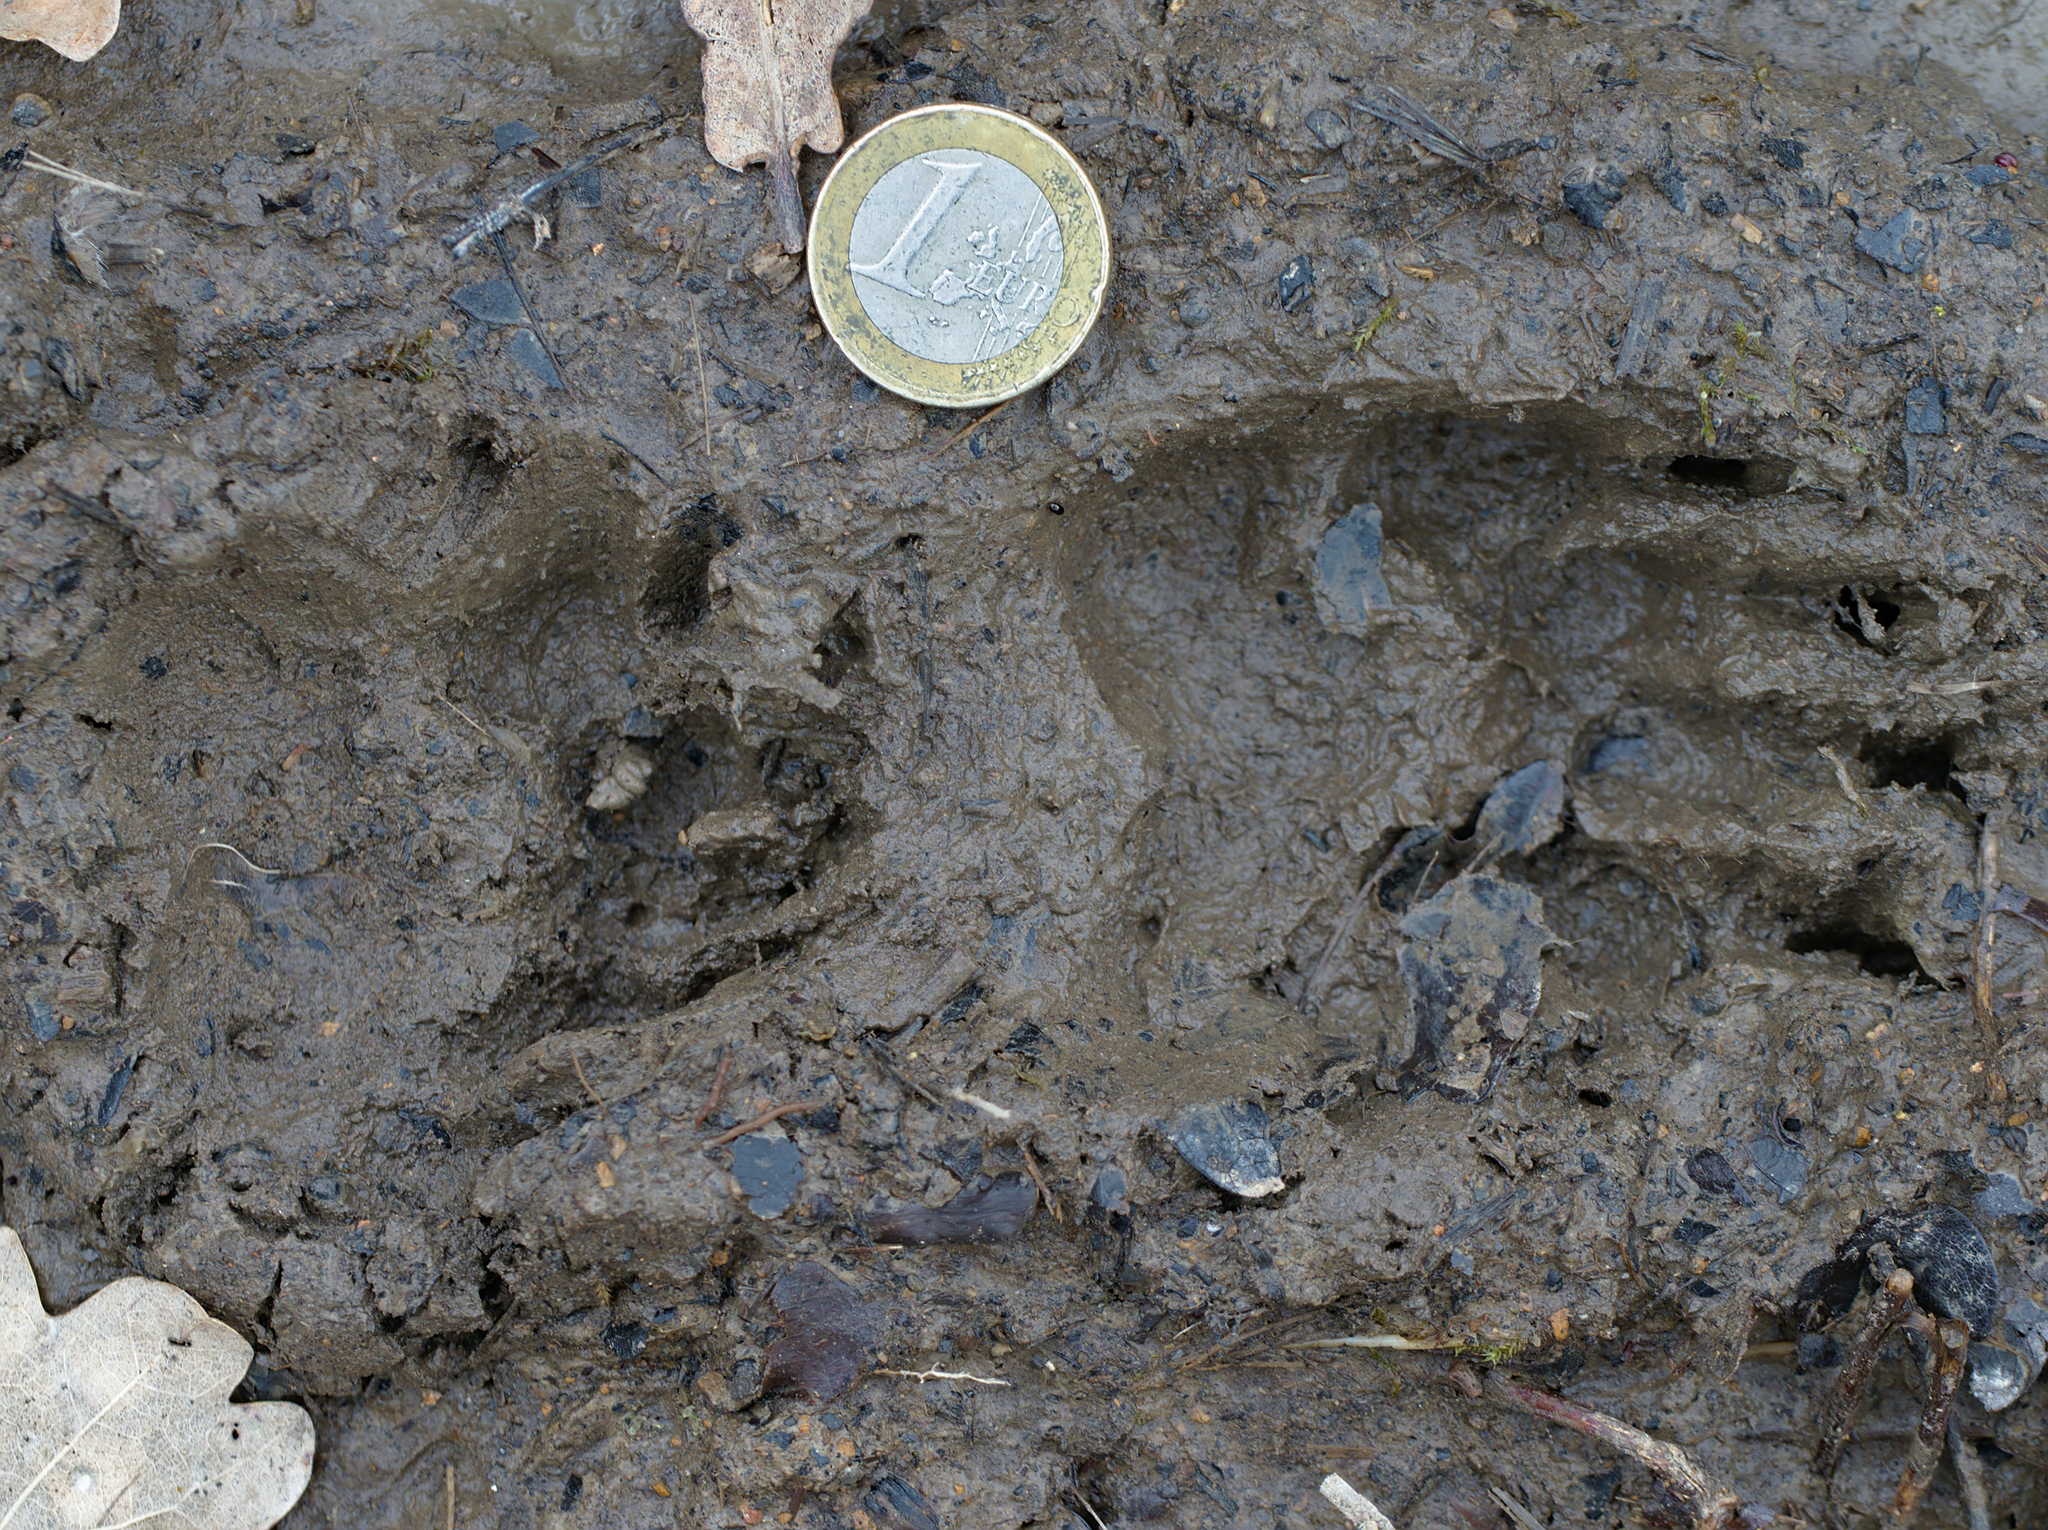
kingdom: Animalia
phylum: Chordata
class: Mammalia
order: Carnivora
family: Mustelidae
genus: Meles
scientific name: Meles meles
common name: Eurasian badger
